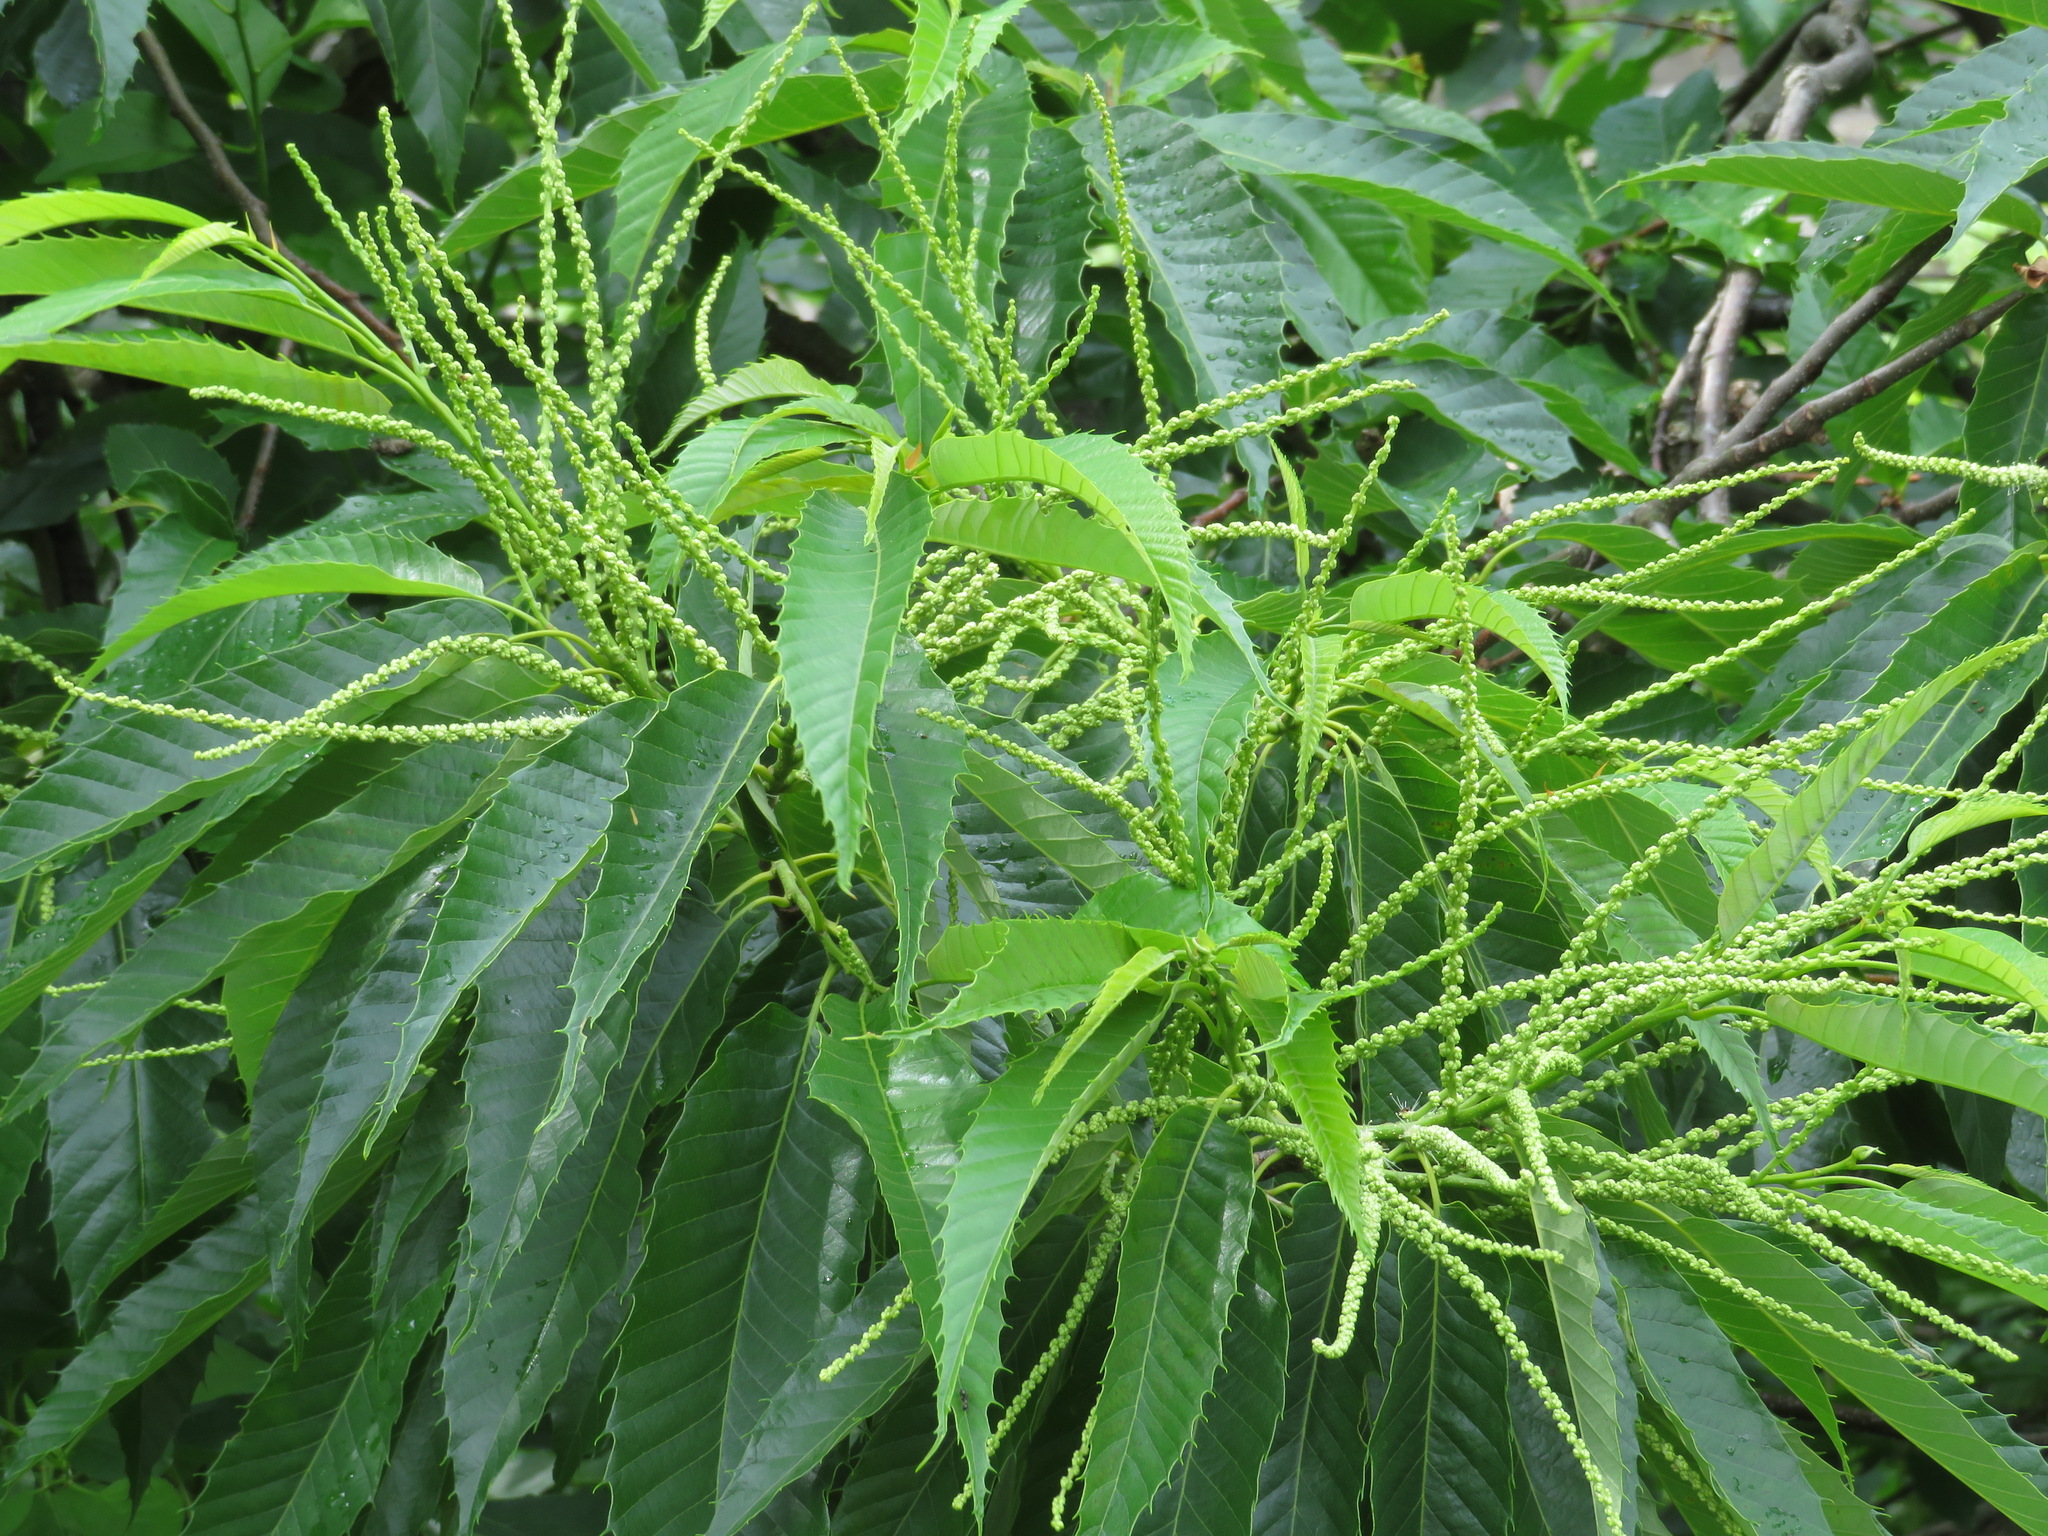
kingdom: Plantae
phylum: Tracheophyta
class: Magnoliopsida
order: Fagales
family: Fagaceae
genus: Castanea
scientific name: Castanea crenata
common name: Japanese chestnut
